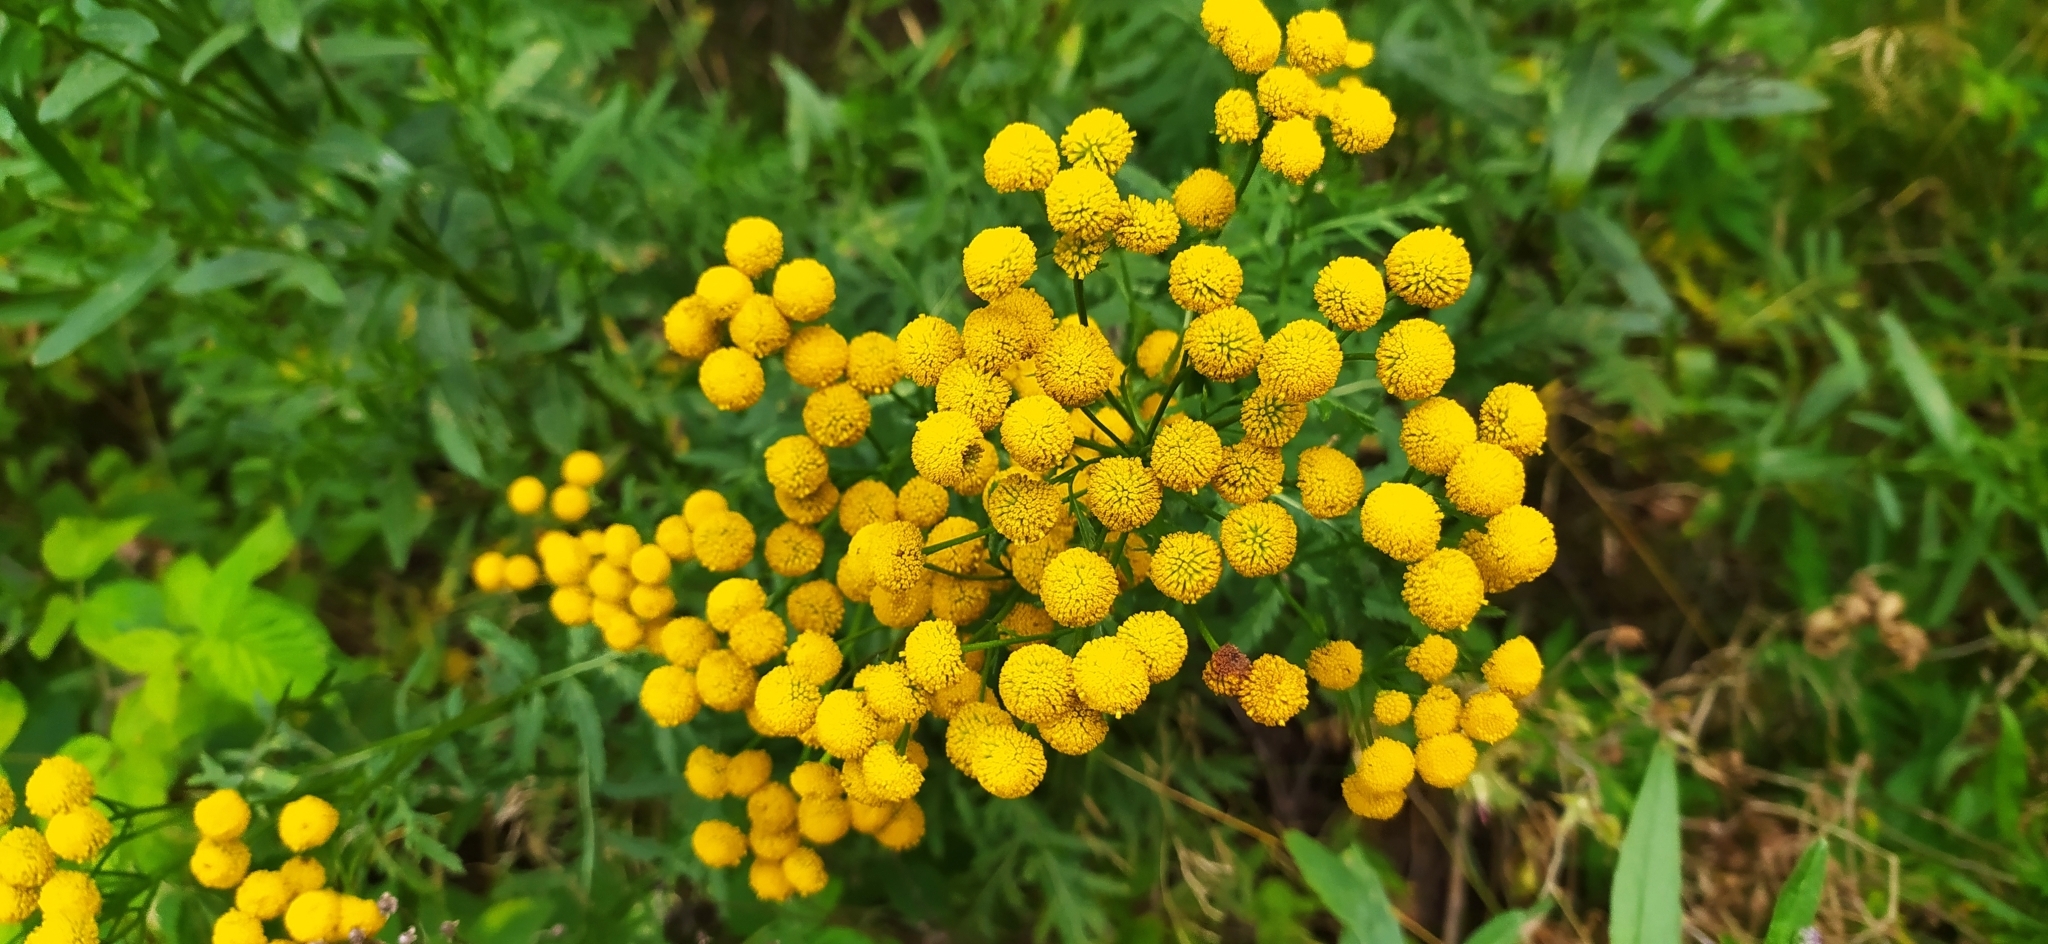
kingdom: Plantae
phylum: Tracheophyta
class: Magnoliopsida
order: Asterales
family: Asteraceae
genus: Tanacetum
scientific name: Tanacetum vulgare
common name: Common tansy
